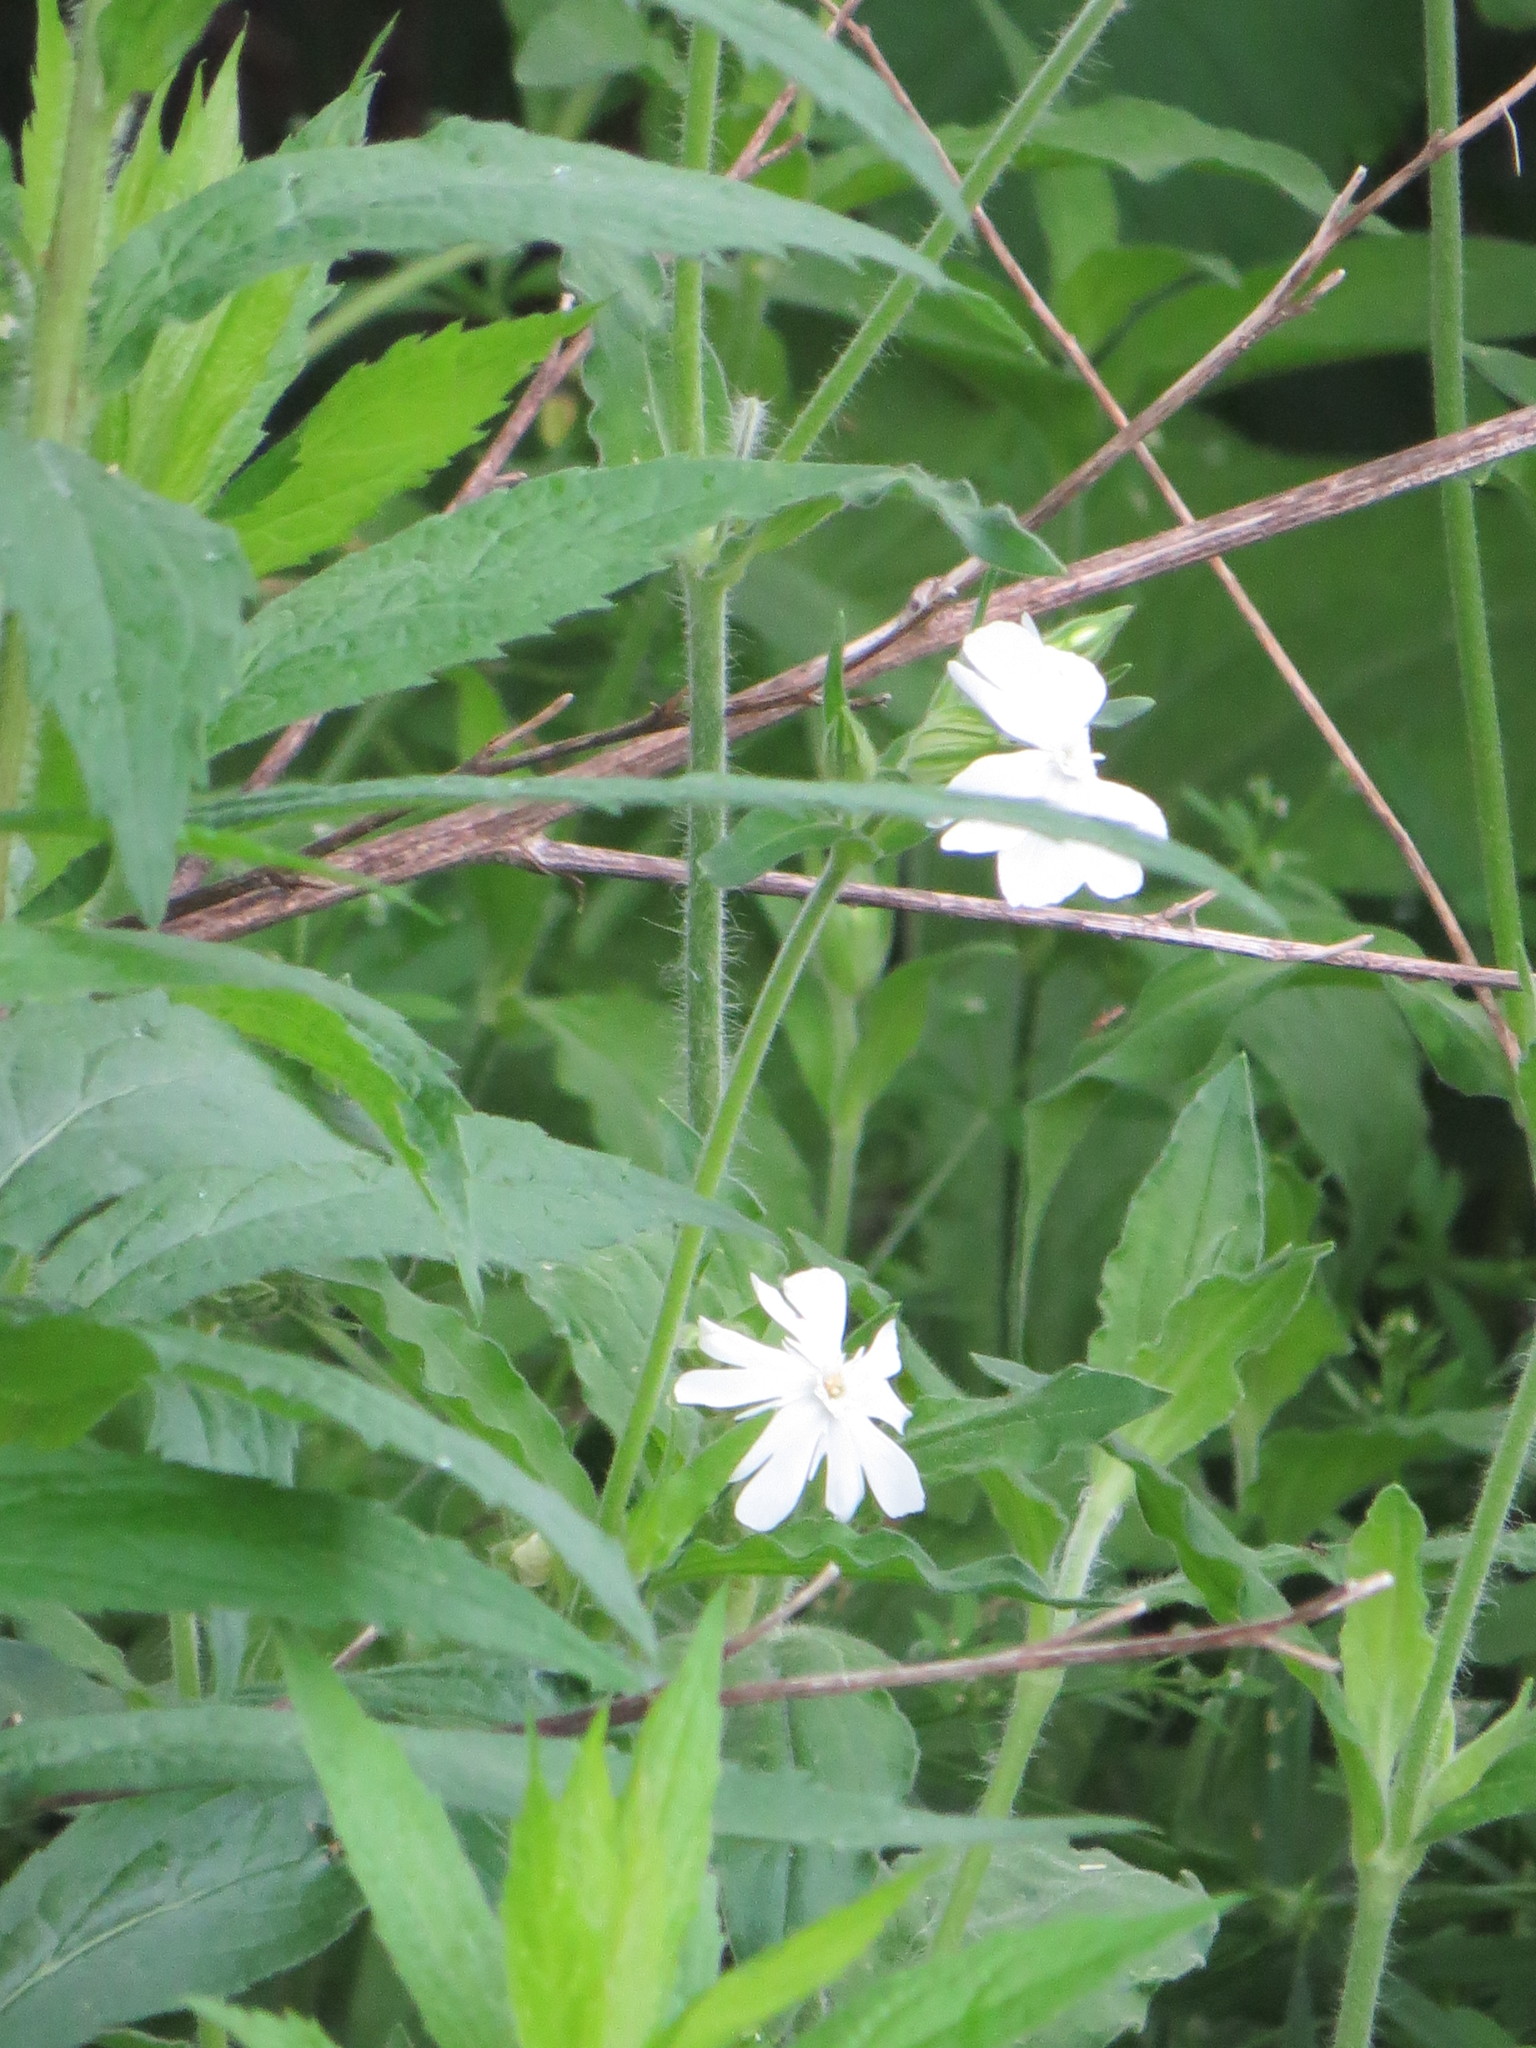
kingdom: Plantae
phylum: Tracheophyta
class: Magnoliopsida
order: Caryophyllales
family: Caryophyllaceae
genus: Silene
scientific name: Silene latifolia
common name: White campion
